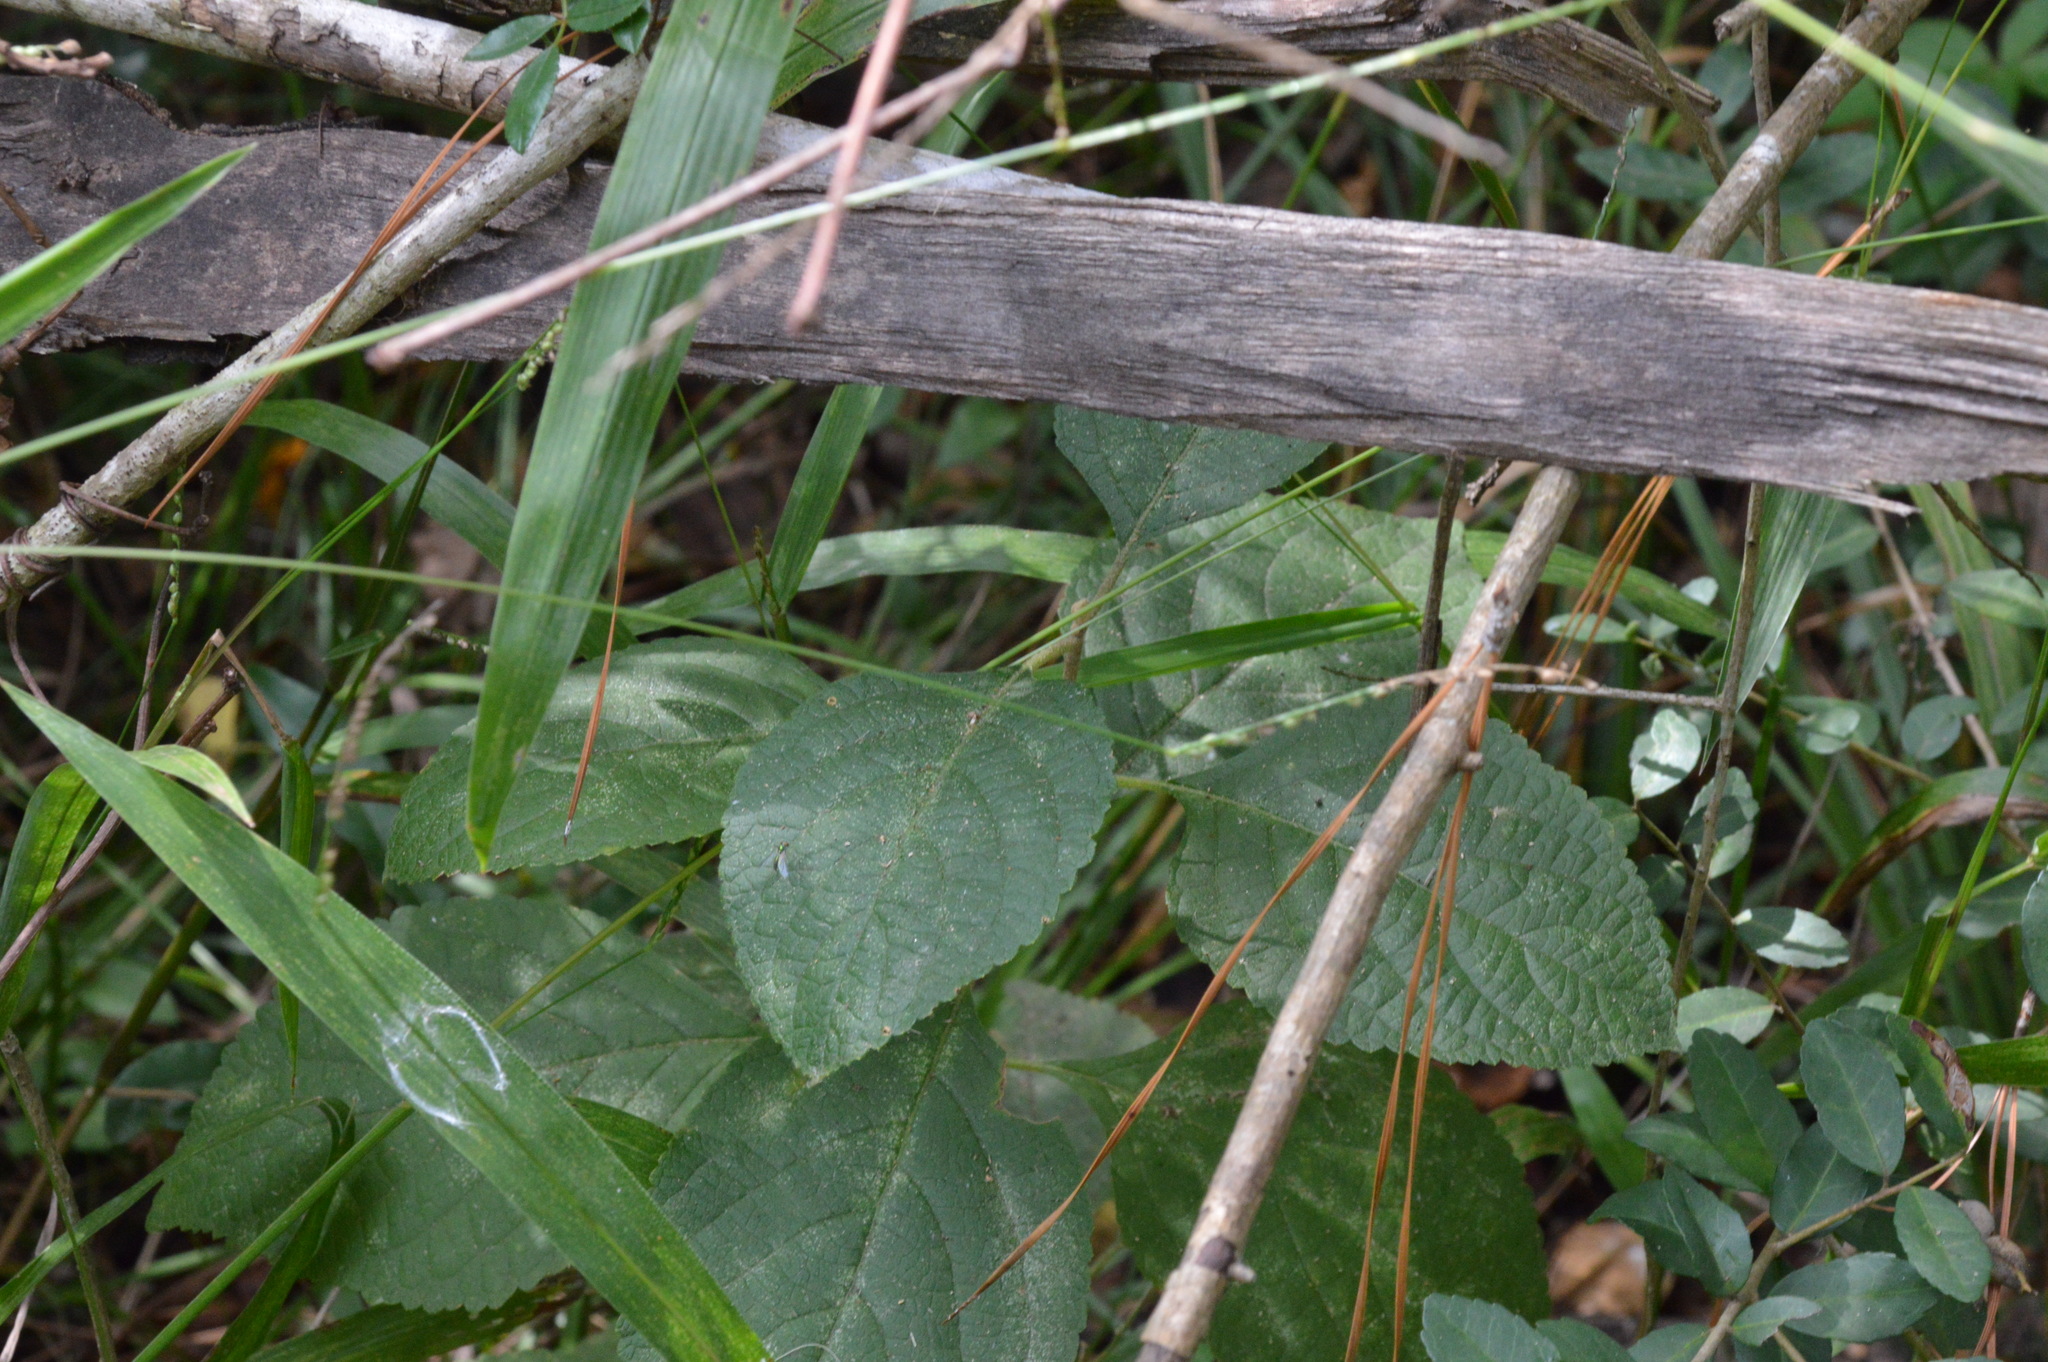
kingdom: Plantae
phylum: Tracheophyta
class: Magnoliopsida
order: Lamiales
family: Lamiaceae
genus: Callicarpa
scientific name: Callicarpa americana
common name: American beautyberry
